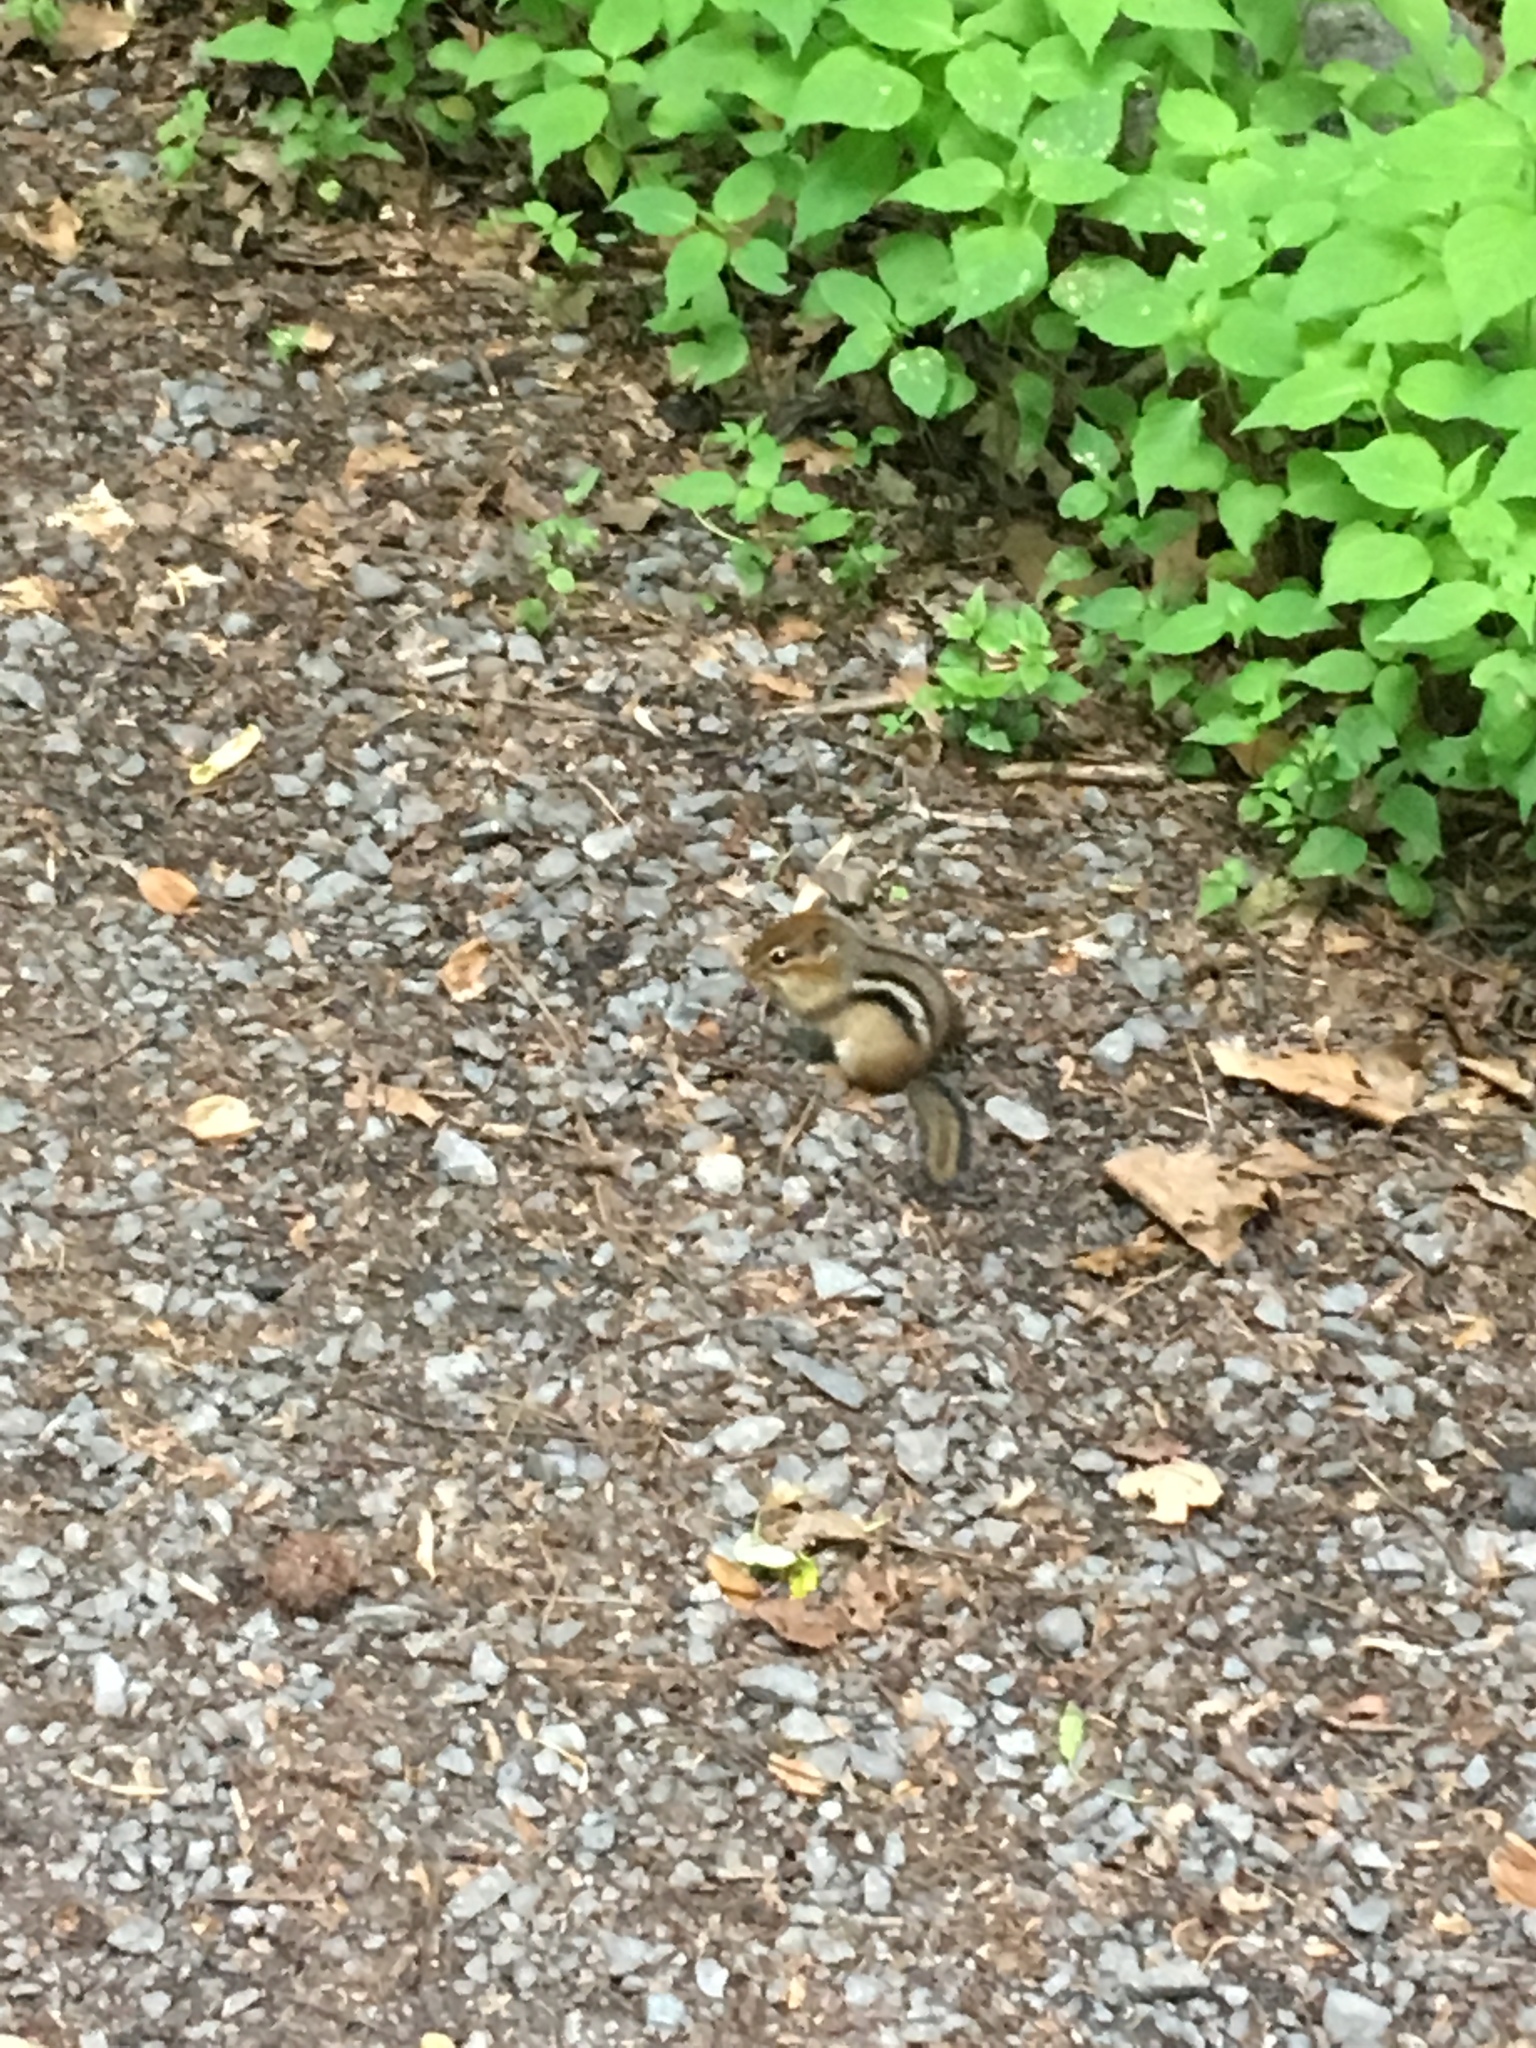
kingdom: Animalia
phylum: Chordata
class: Mammalia
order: Rodentia
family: Sciuridae
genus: Tamias
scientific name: Tamias striatus
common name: Eastern chipmunk
